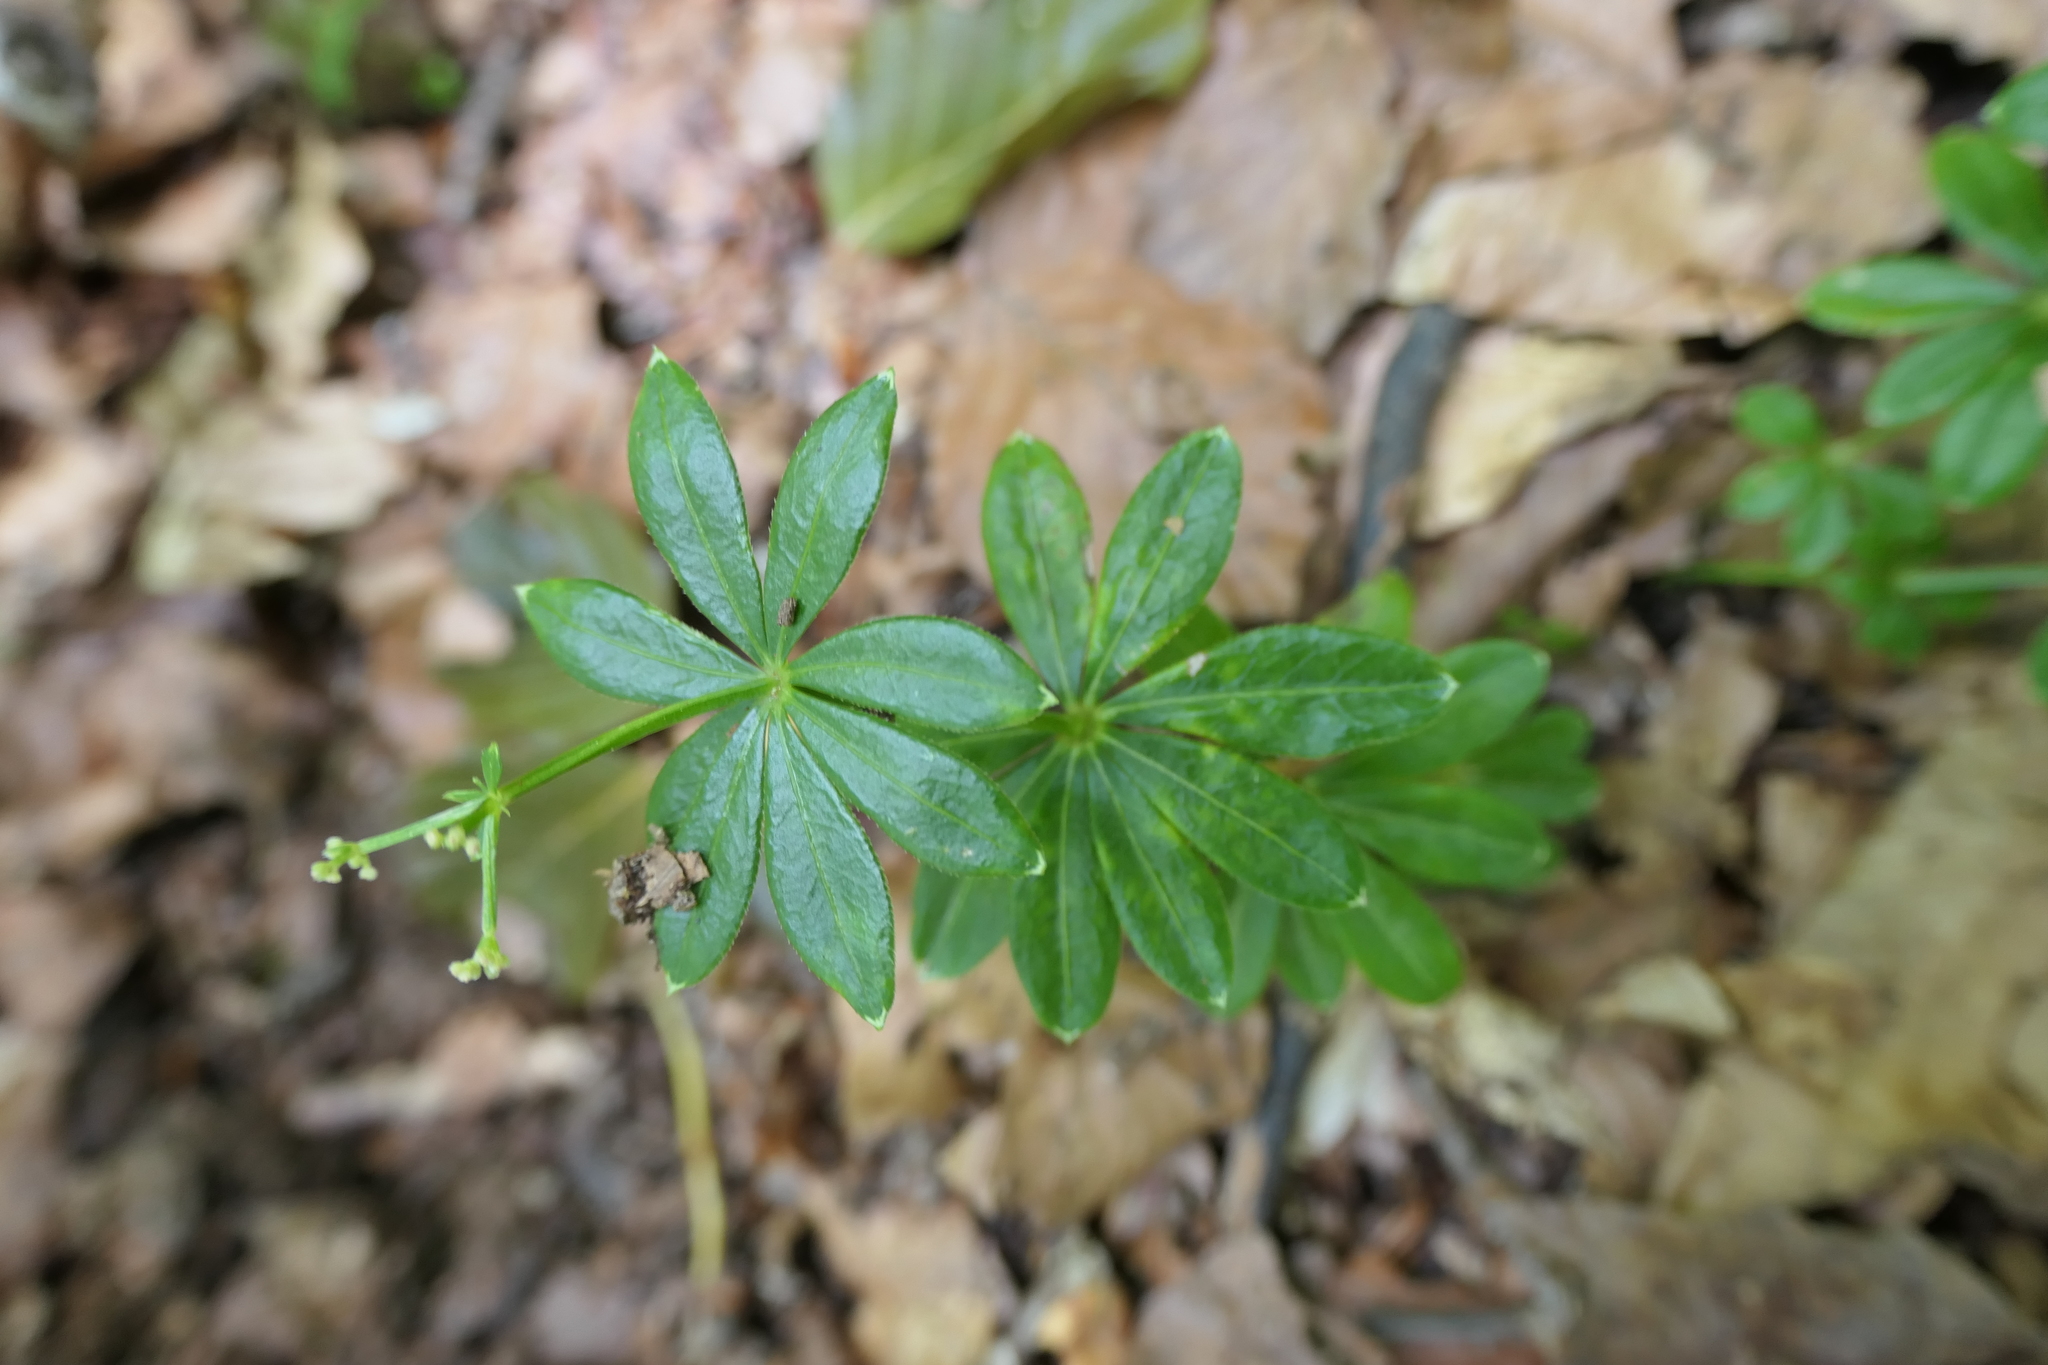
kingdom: Plantae
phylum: Tracheophyta
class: Magnoliopsida
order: Gentianales
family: Rubiaceae
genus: Galium
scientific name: Galium odoratum
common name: Sweet woodruff
